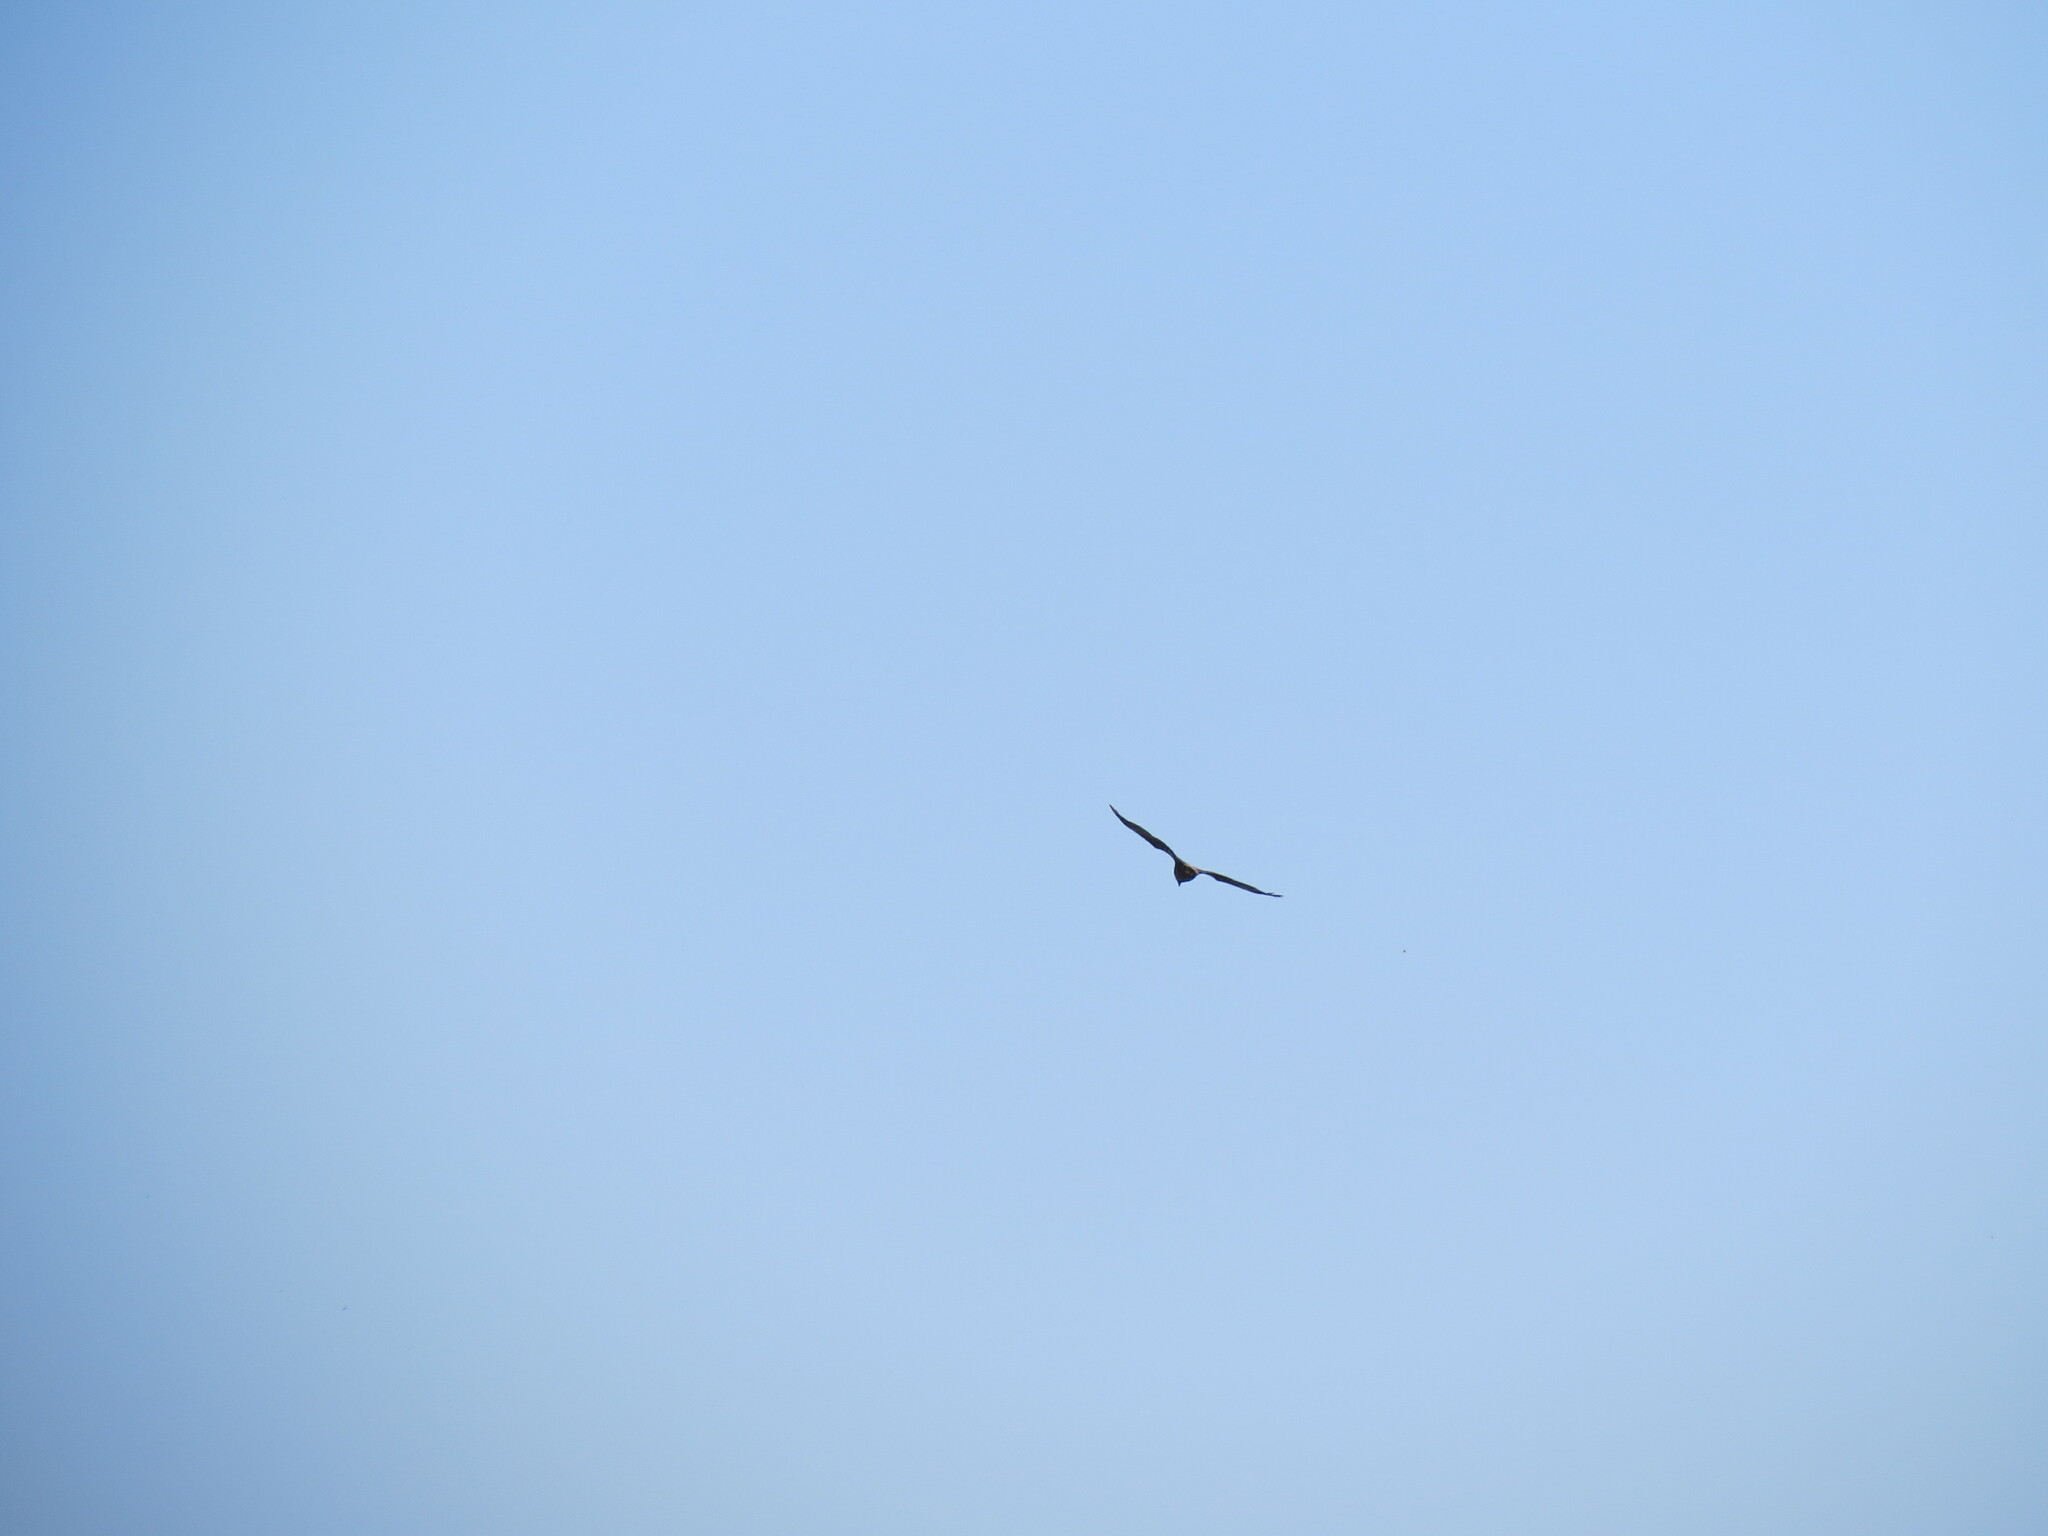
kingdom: Animalia
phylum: Chordata
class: Aves
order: Accipitriformes
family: Accipitridae
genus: Circus
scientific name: Circus aeruginosus
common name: Western marsh harrier
